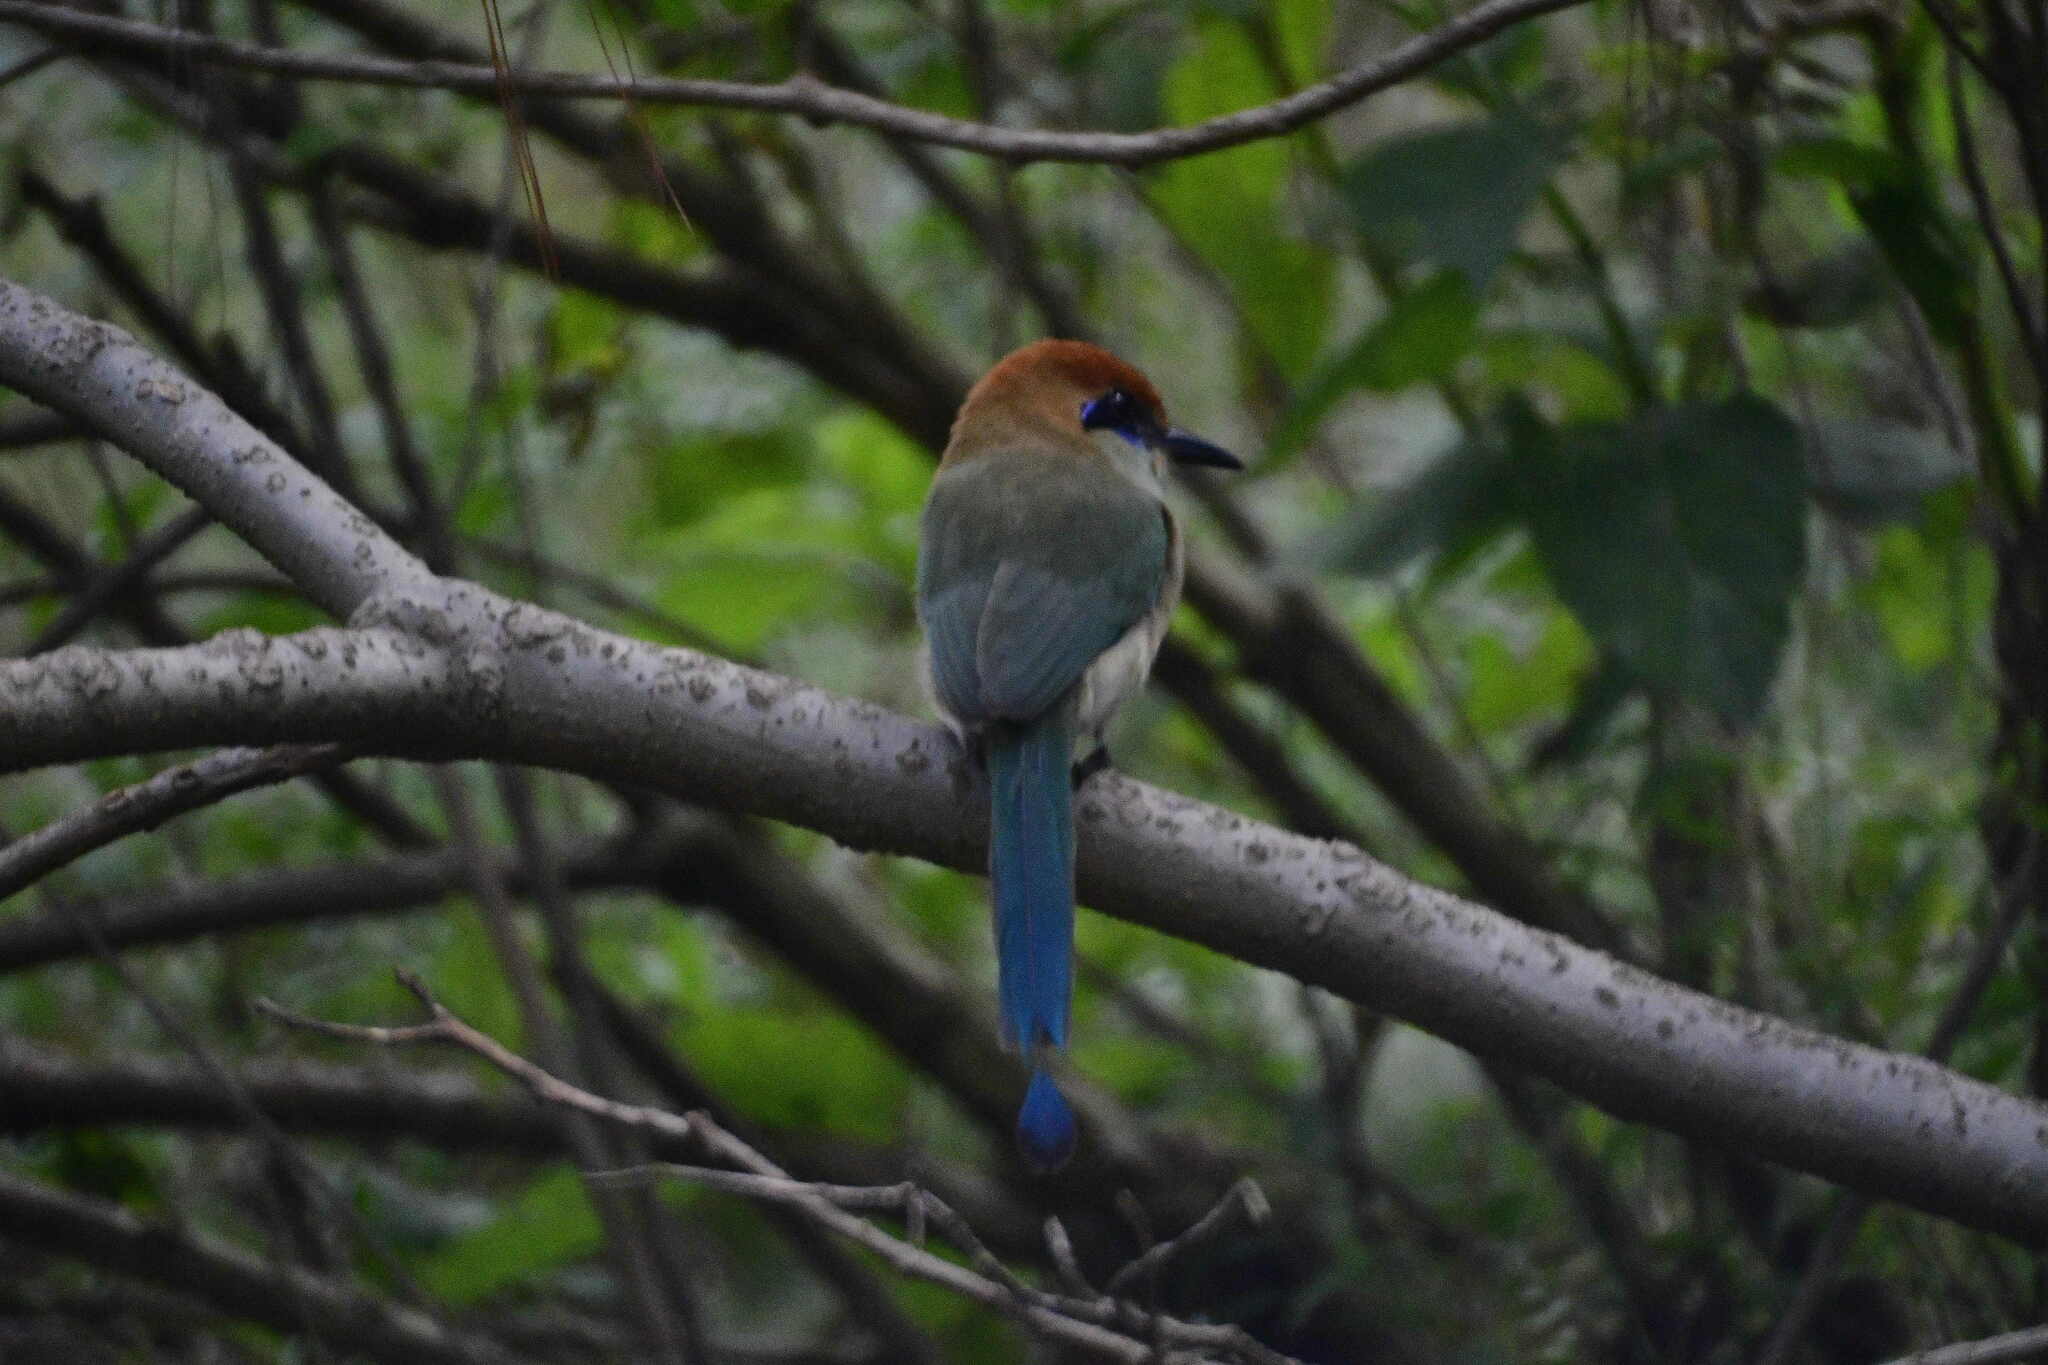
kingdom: Animalia
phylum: Chordata
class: Aves
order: Coraciiformes
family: Momotidae
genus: Momotus
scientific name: Momotus mexicanus
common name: Russet-crowned motmot
